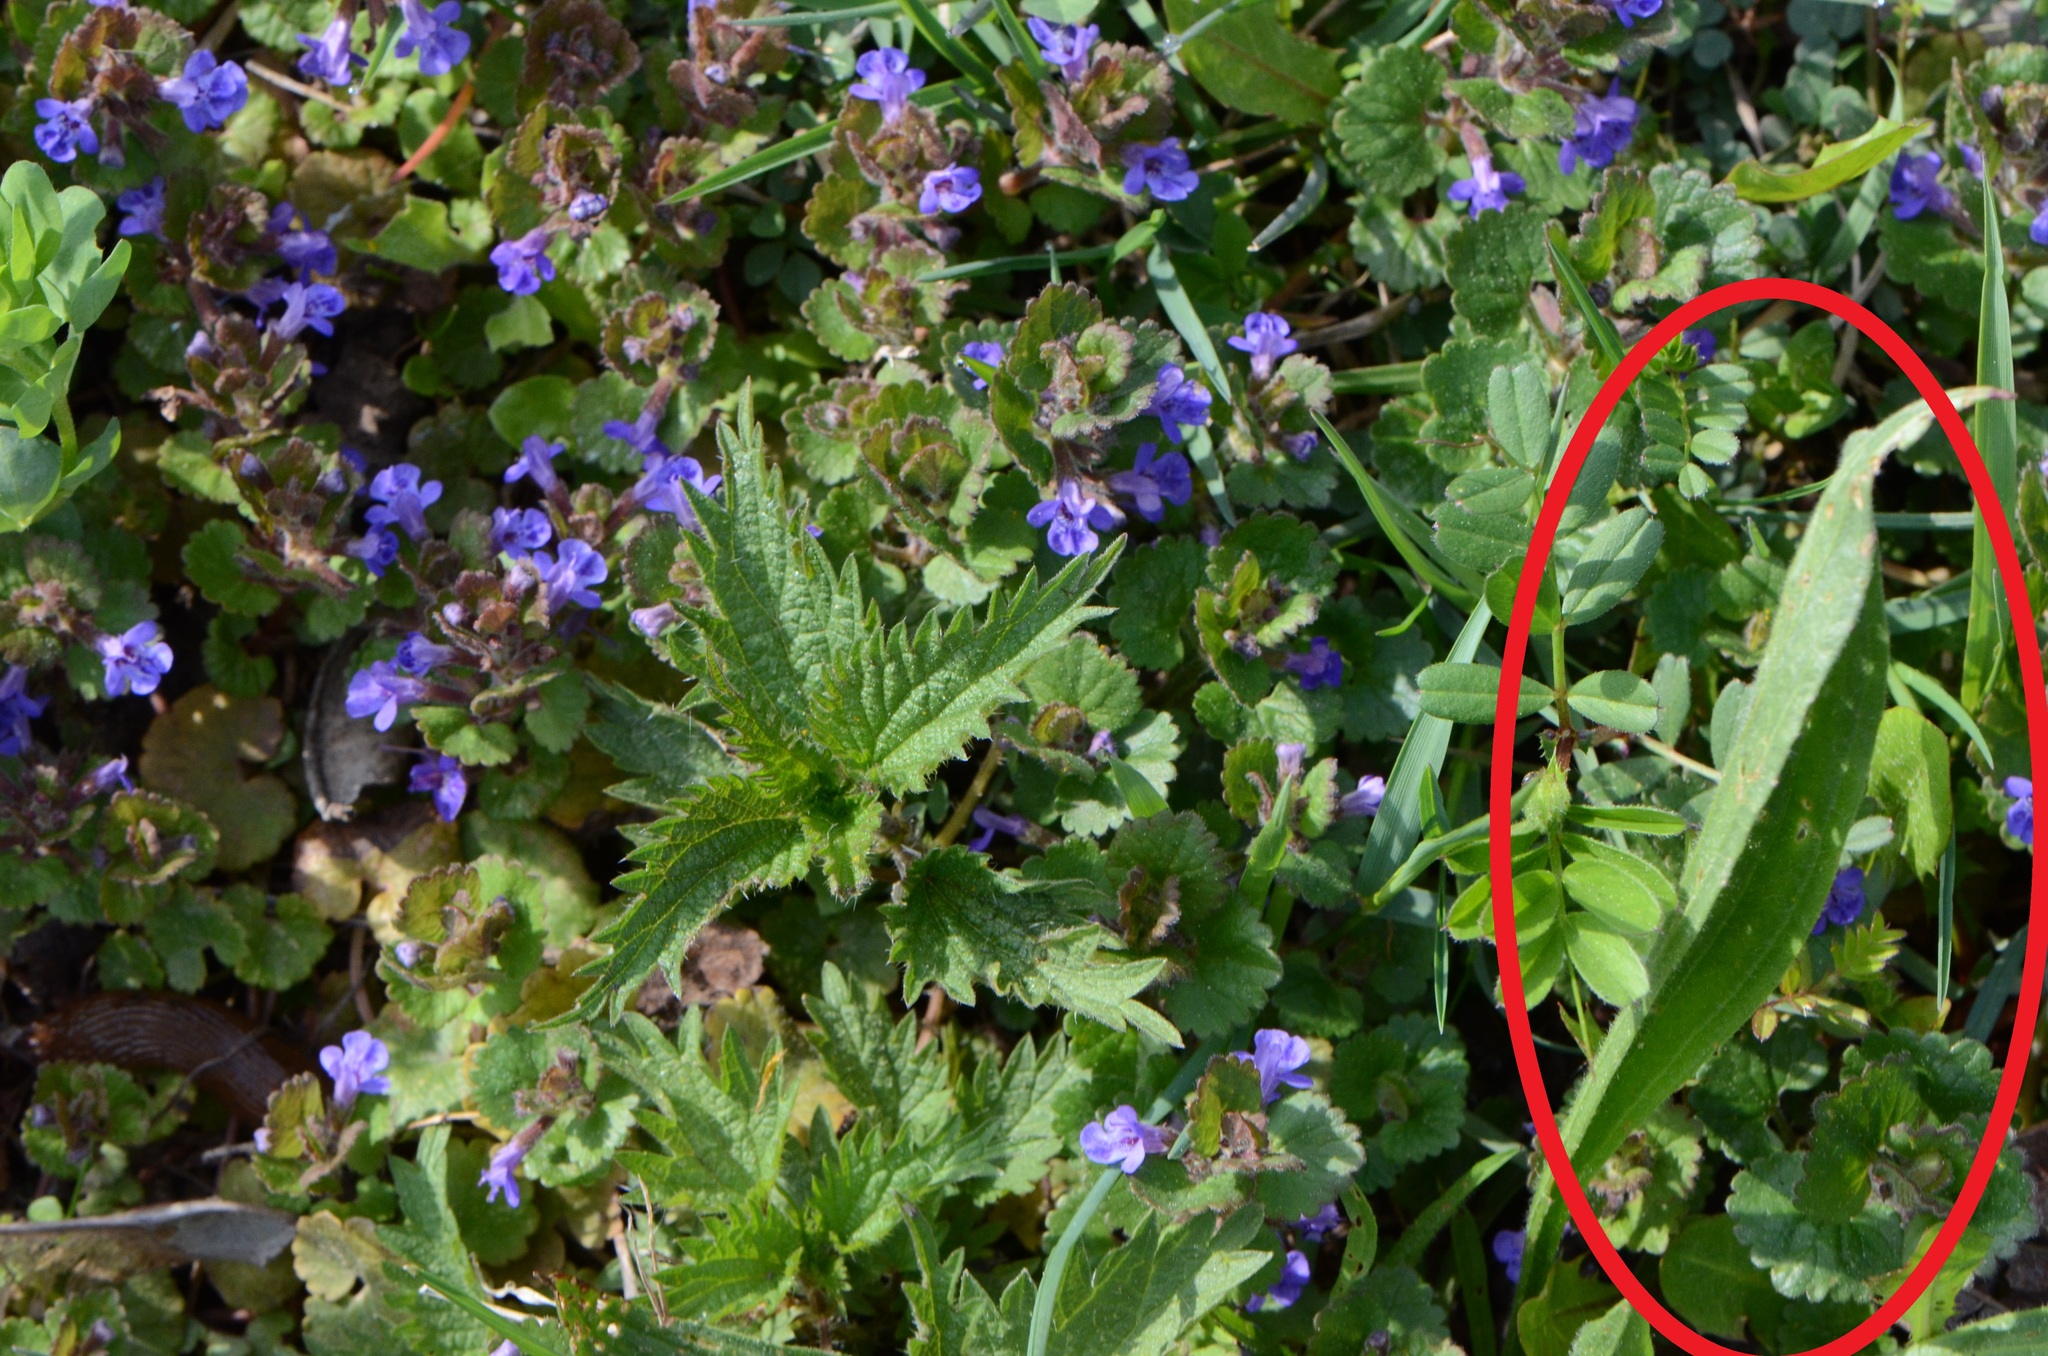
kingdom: Plantae
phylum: Tracheophyta
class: Magnoliopsida
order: Lamiales
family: Plantaginaceae
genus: Plantago
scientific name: Plantago lanceolata
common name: Ribwort plantain
